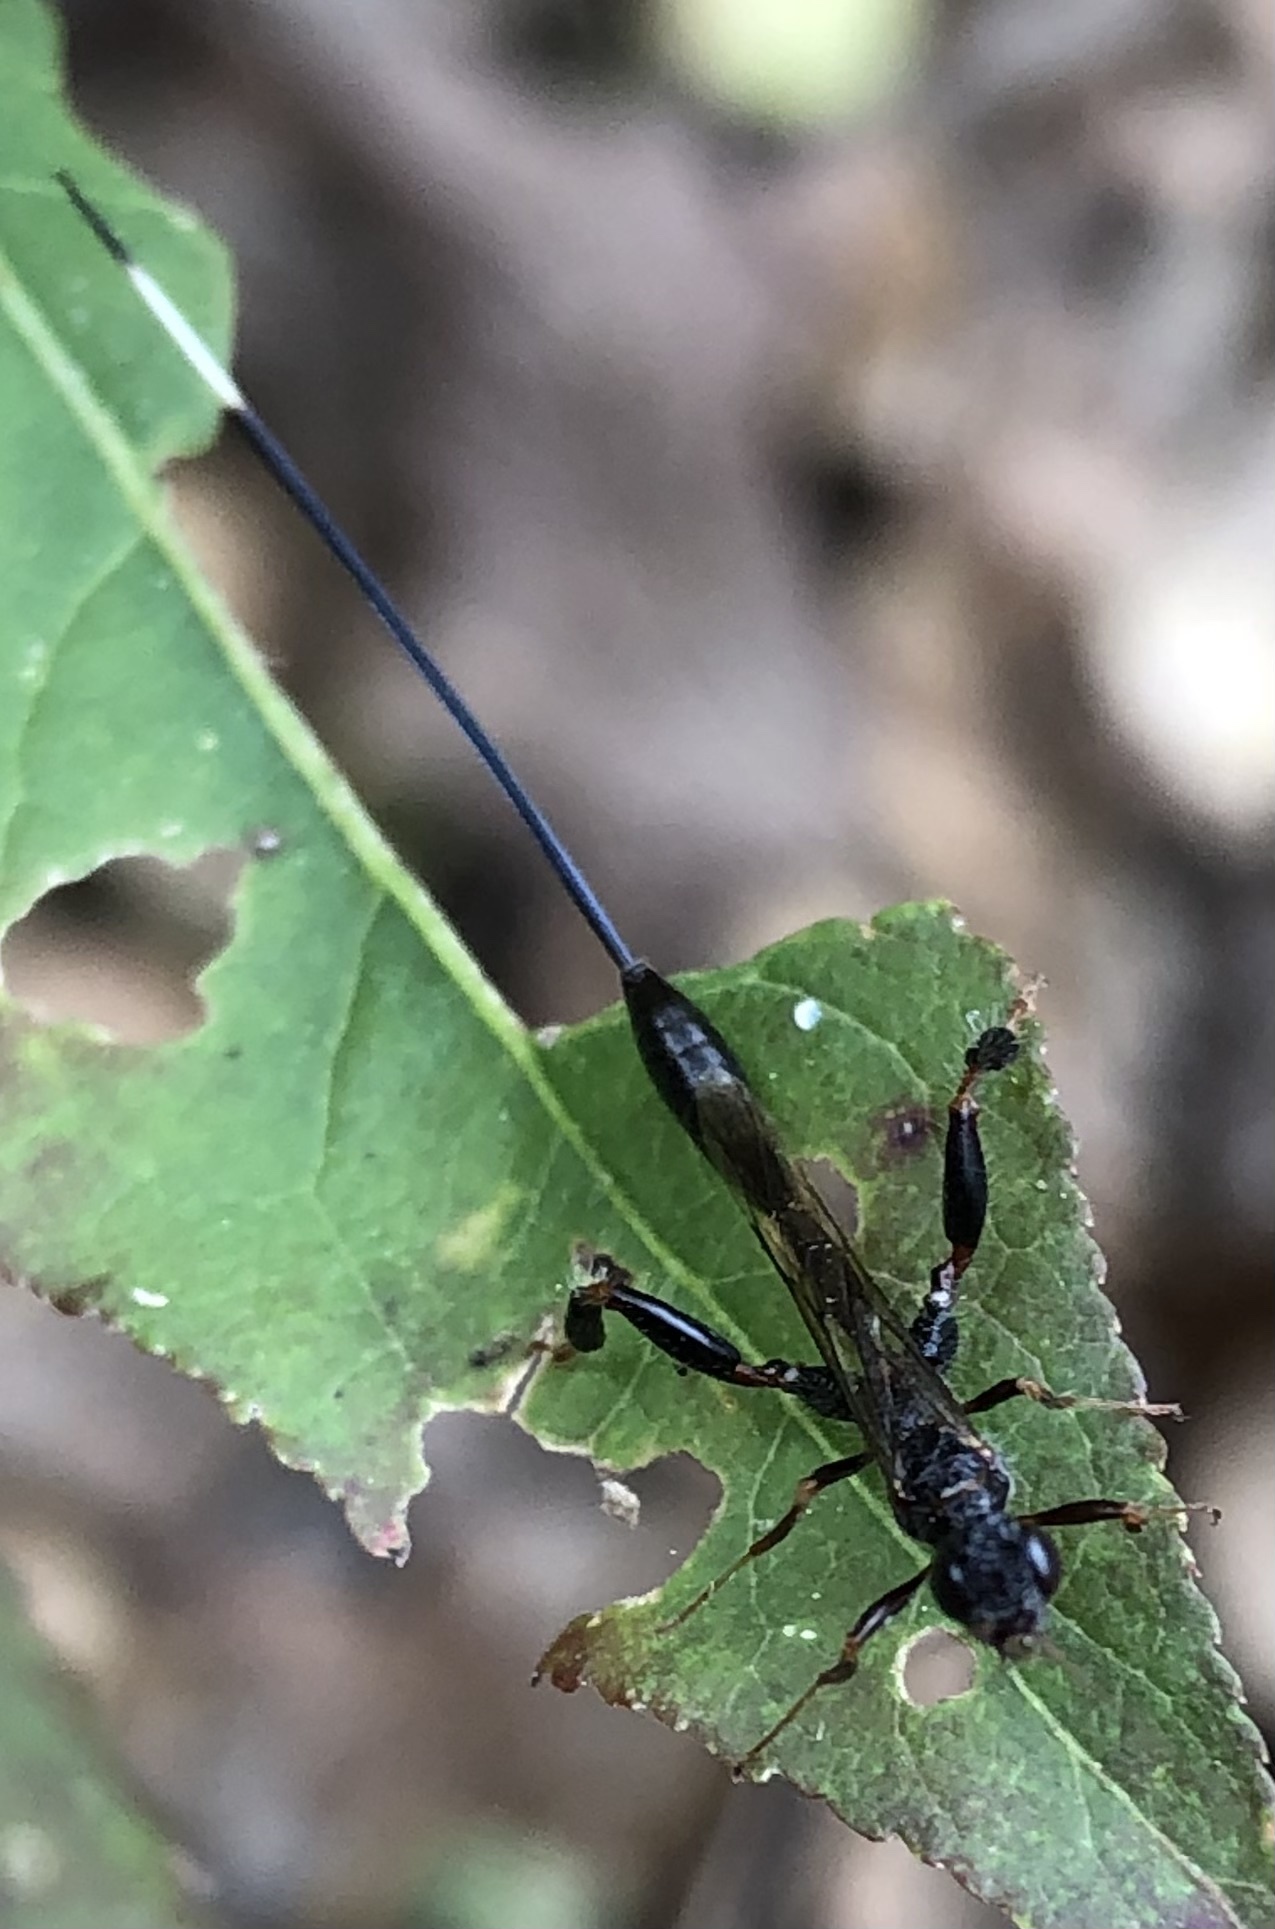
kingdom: Animalia
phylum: Arthropoda
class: Insecta
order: Hymenoptera
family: Stephanidae
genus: Megischus
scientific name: Megischus
